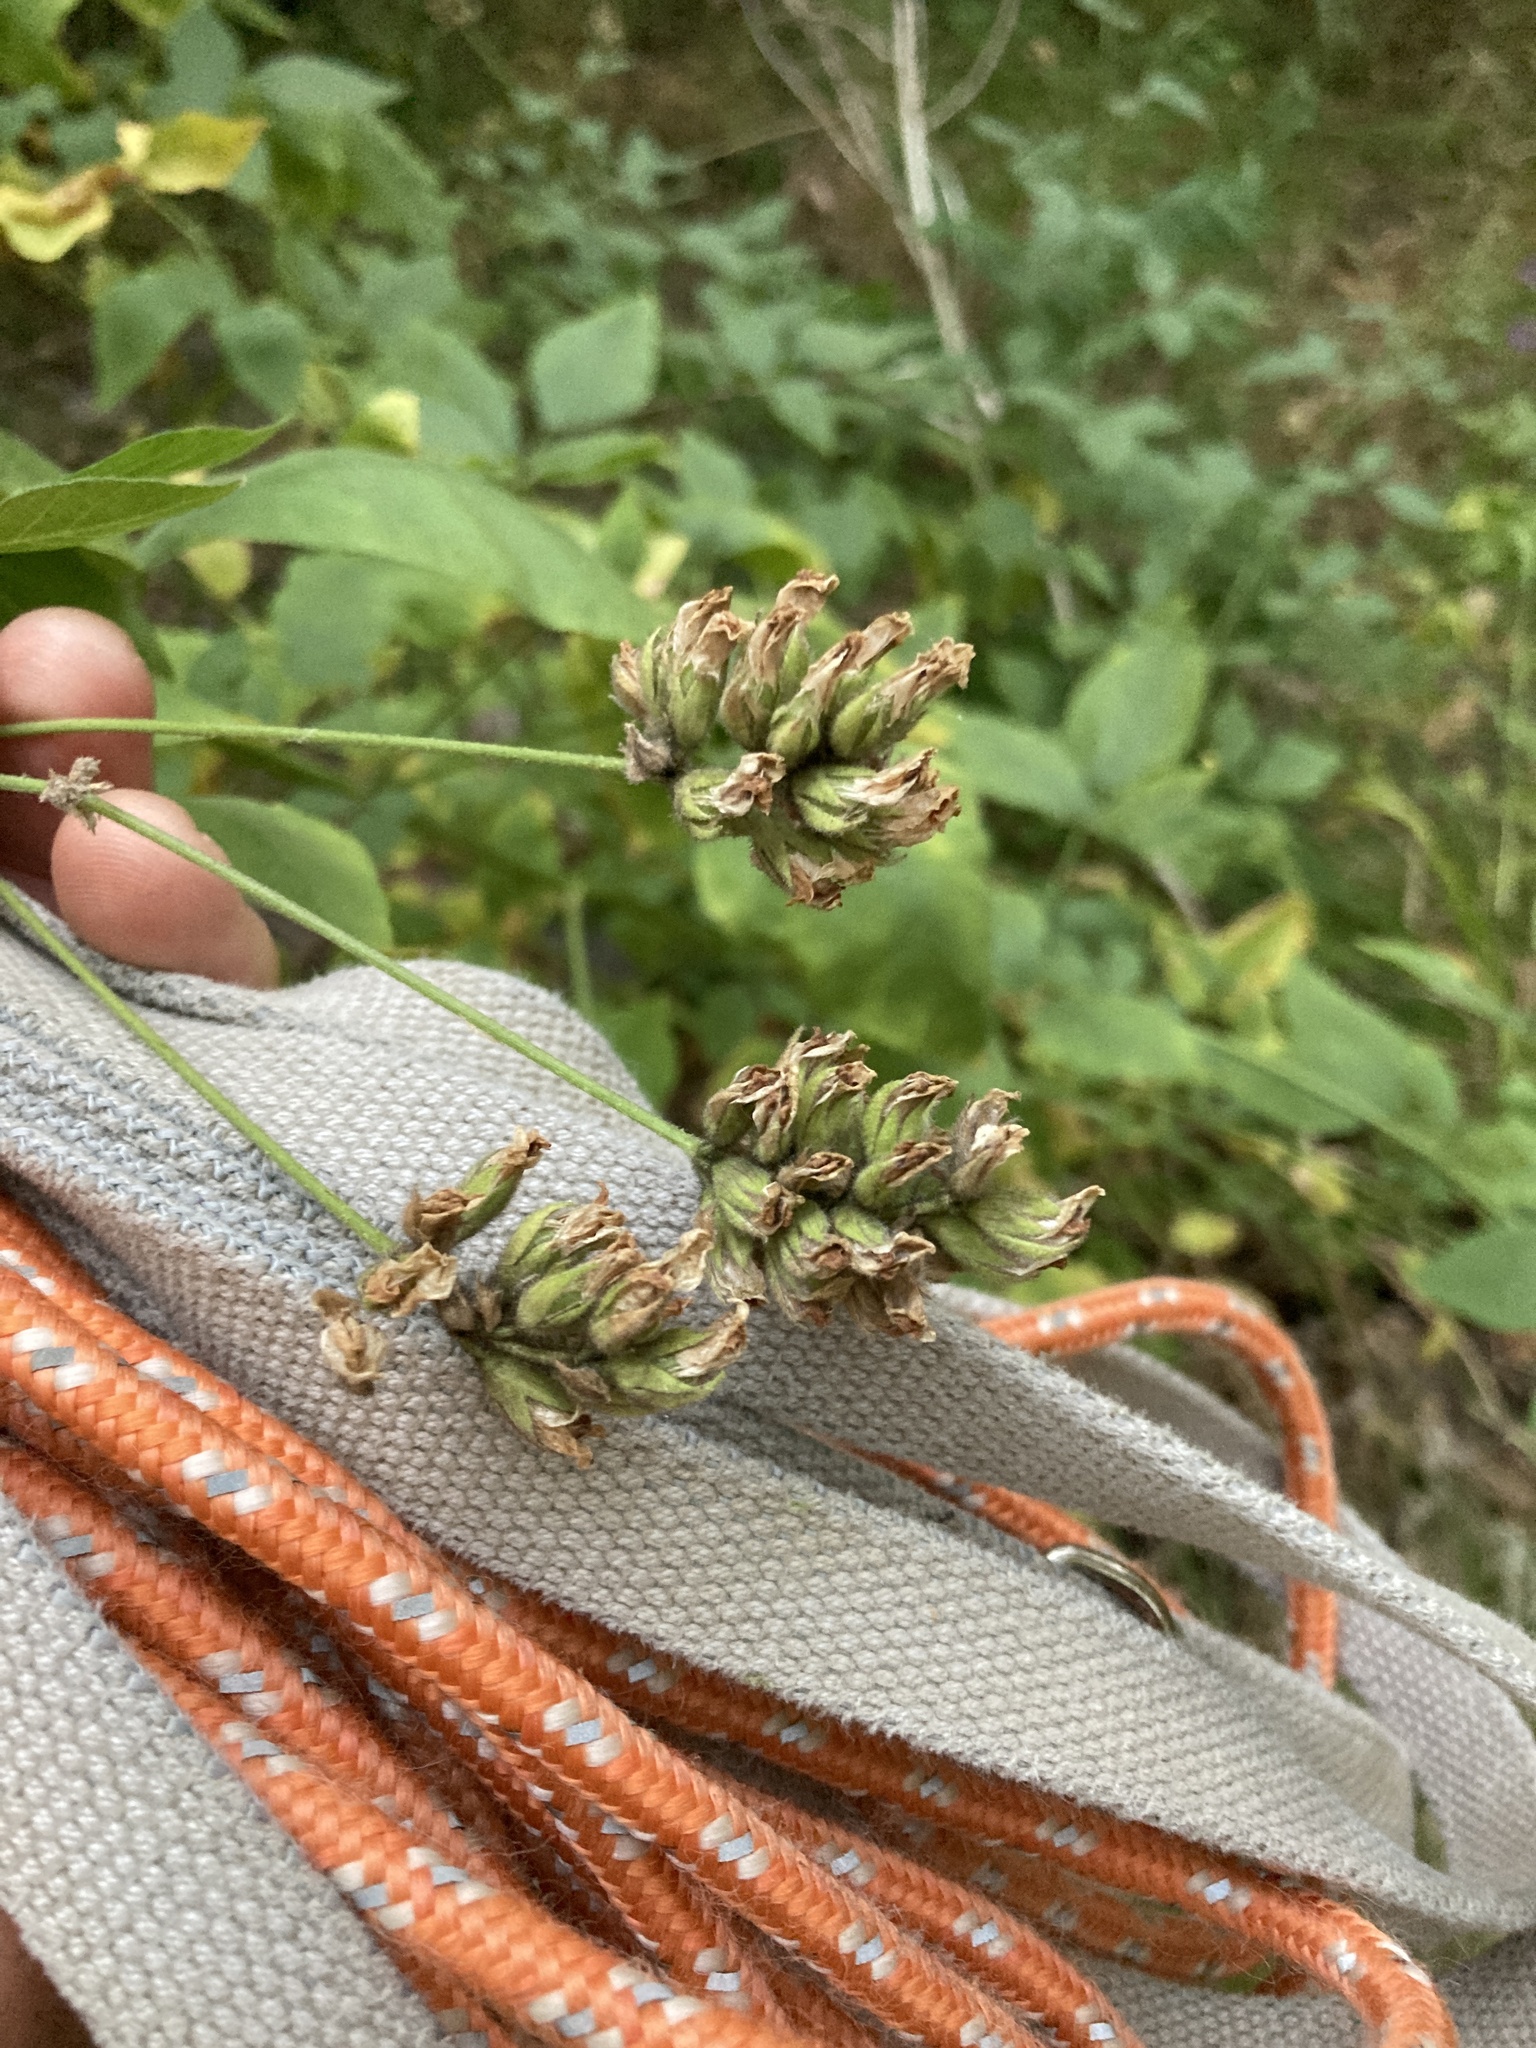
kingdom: Plantae
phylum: Tracheophyta
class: Magnoliopsida
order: Fabales
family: Fabaceae
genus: Hoita
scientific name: Hoita macrostachya
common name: Leatherroot
